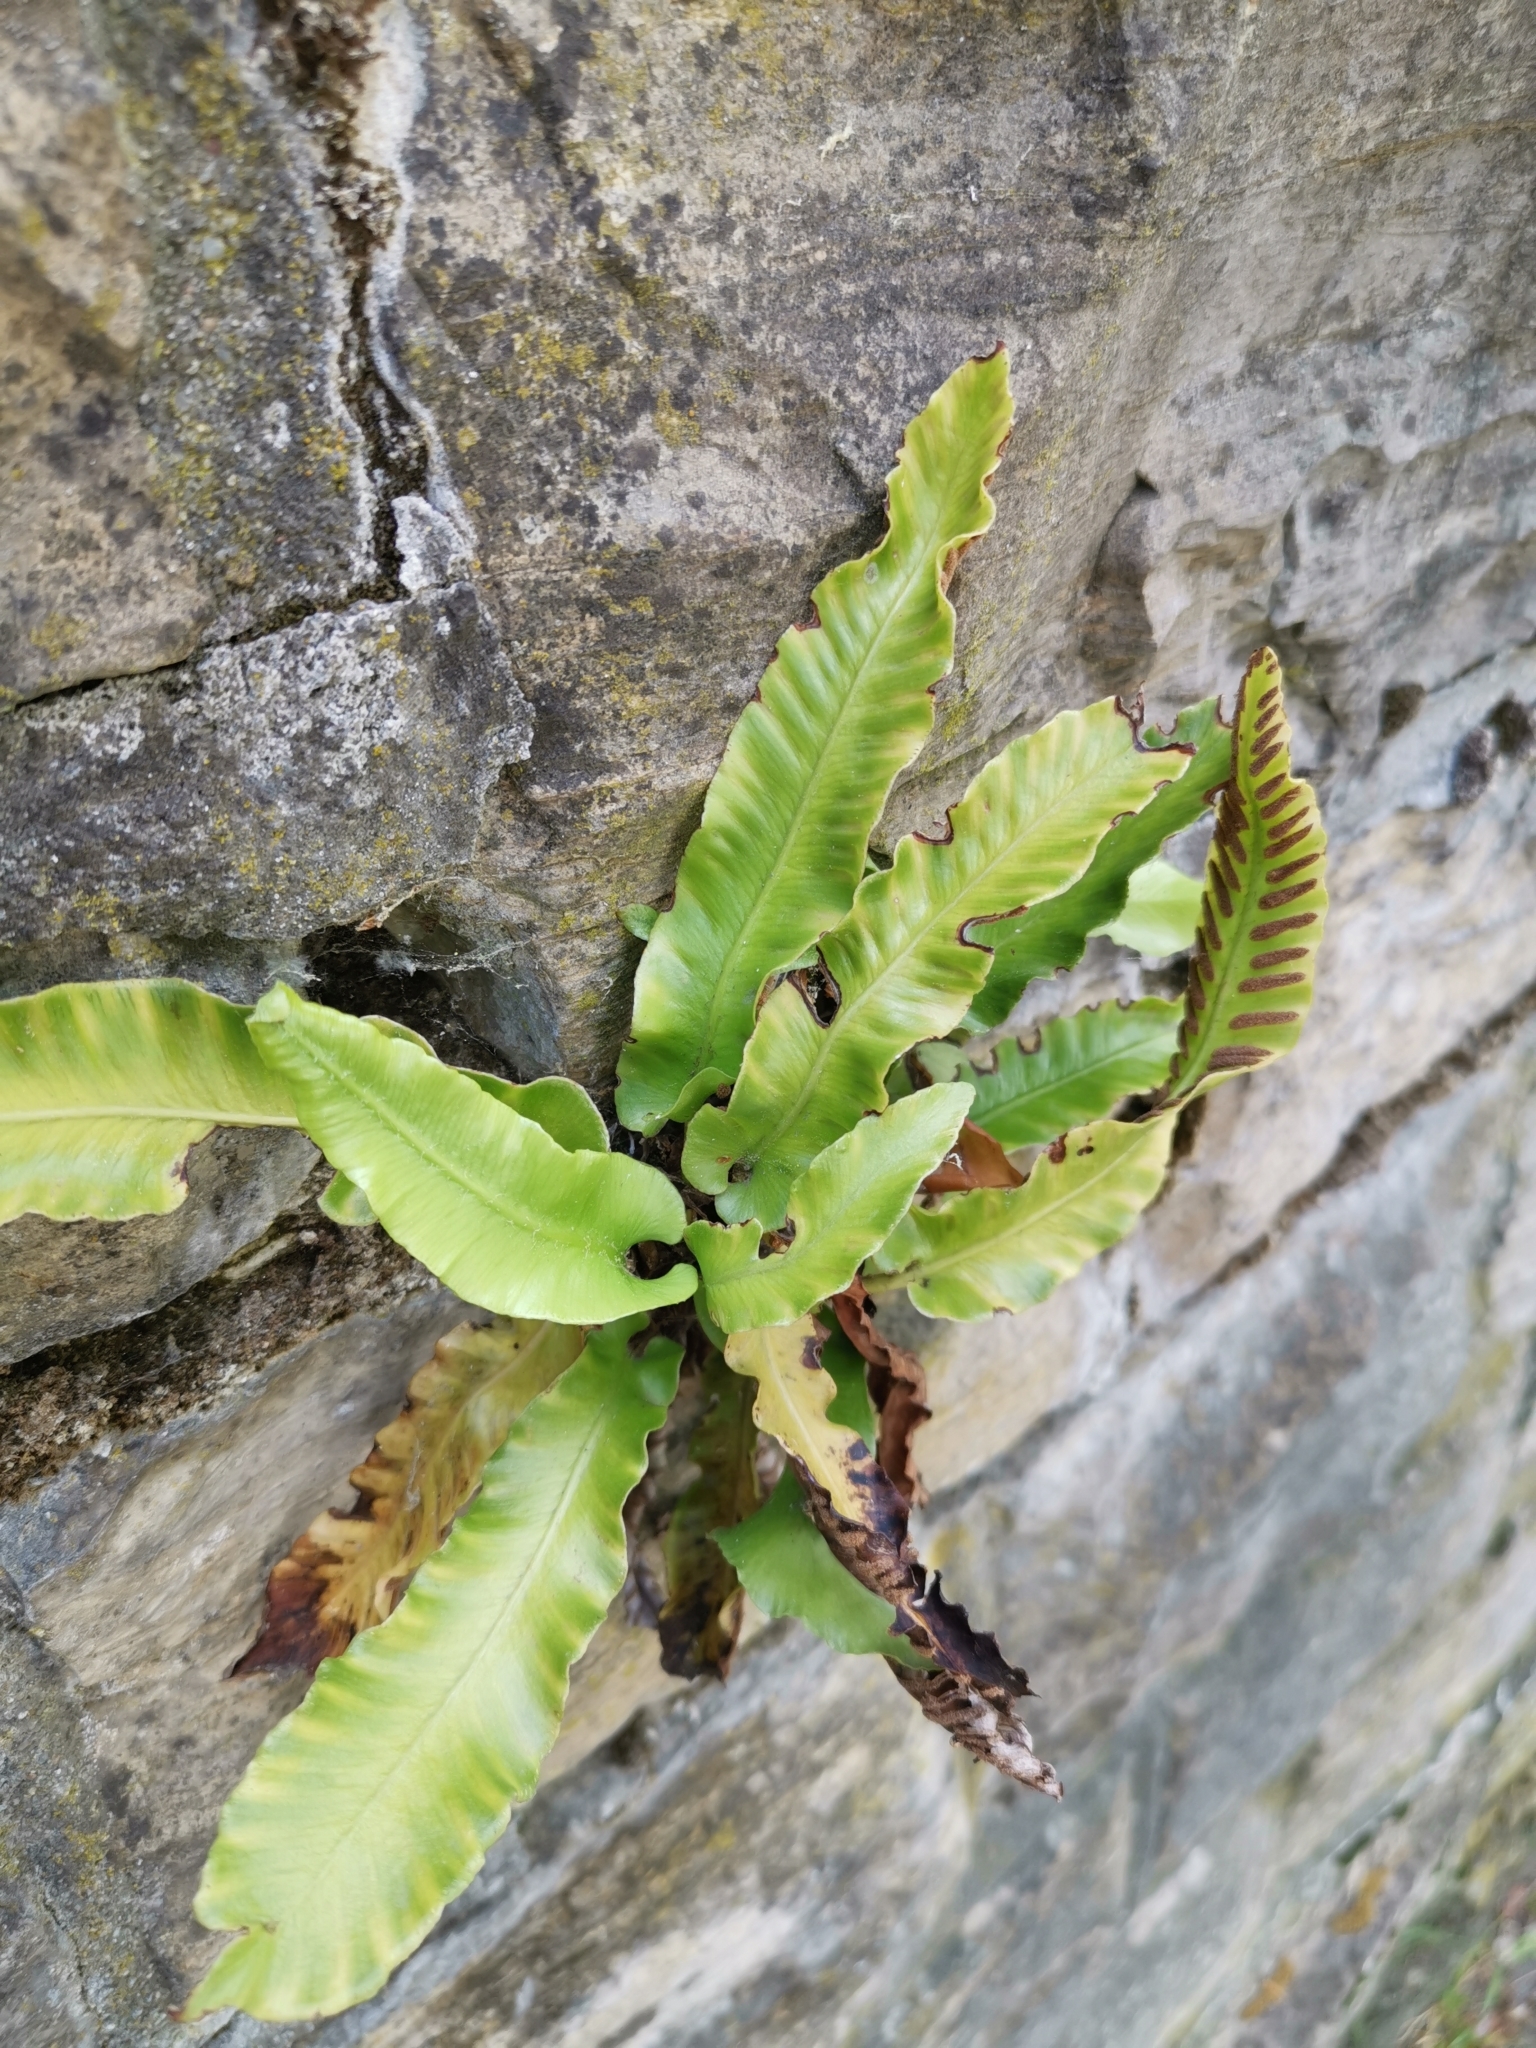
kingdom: Plantae
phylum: Tracheophyta
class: Polypodiopsida
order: Polypodiales
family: Aspleniaceae
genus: Asplenium
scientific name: Asplenium scolopendrium
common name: Hart's-tongue fern
